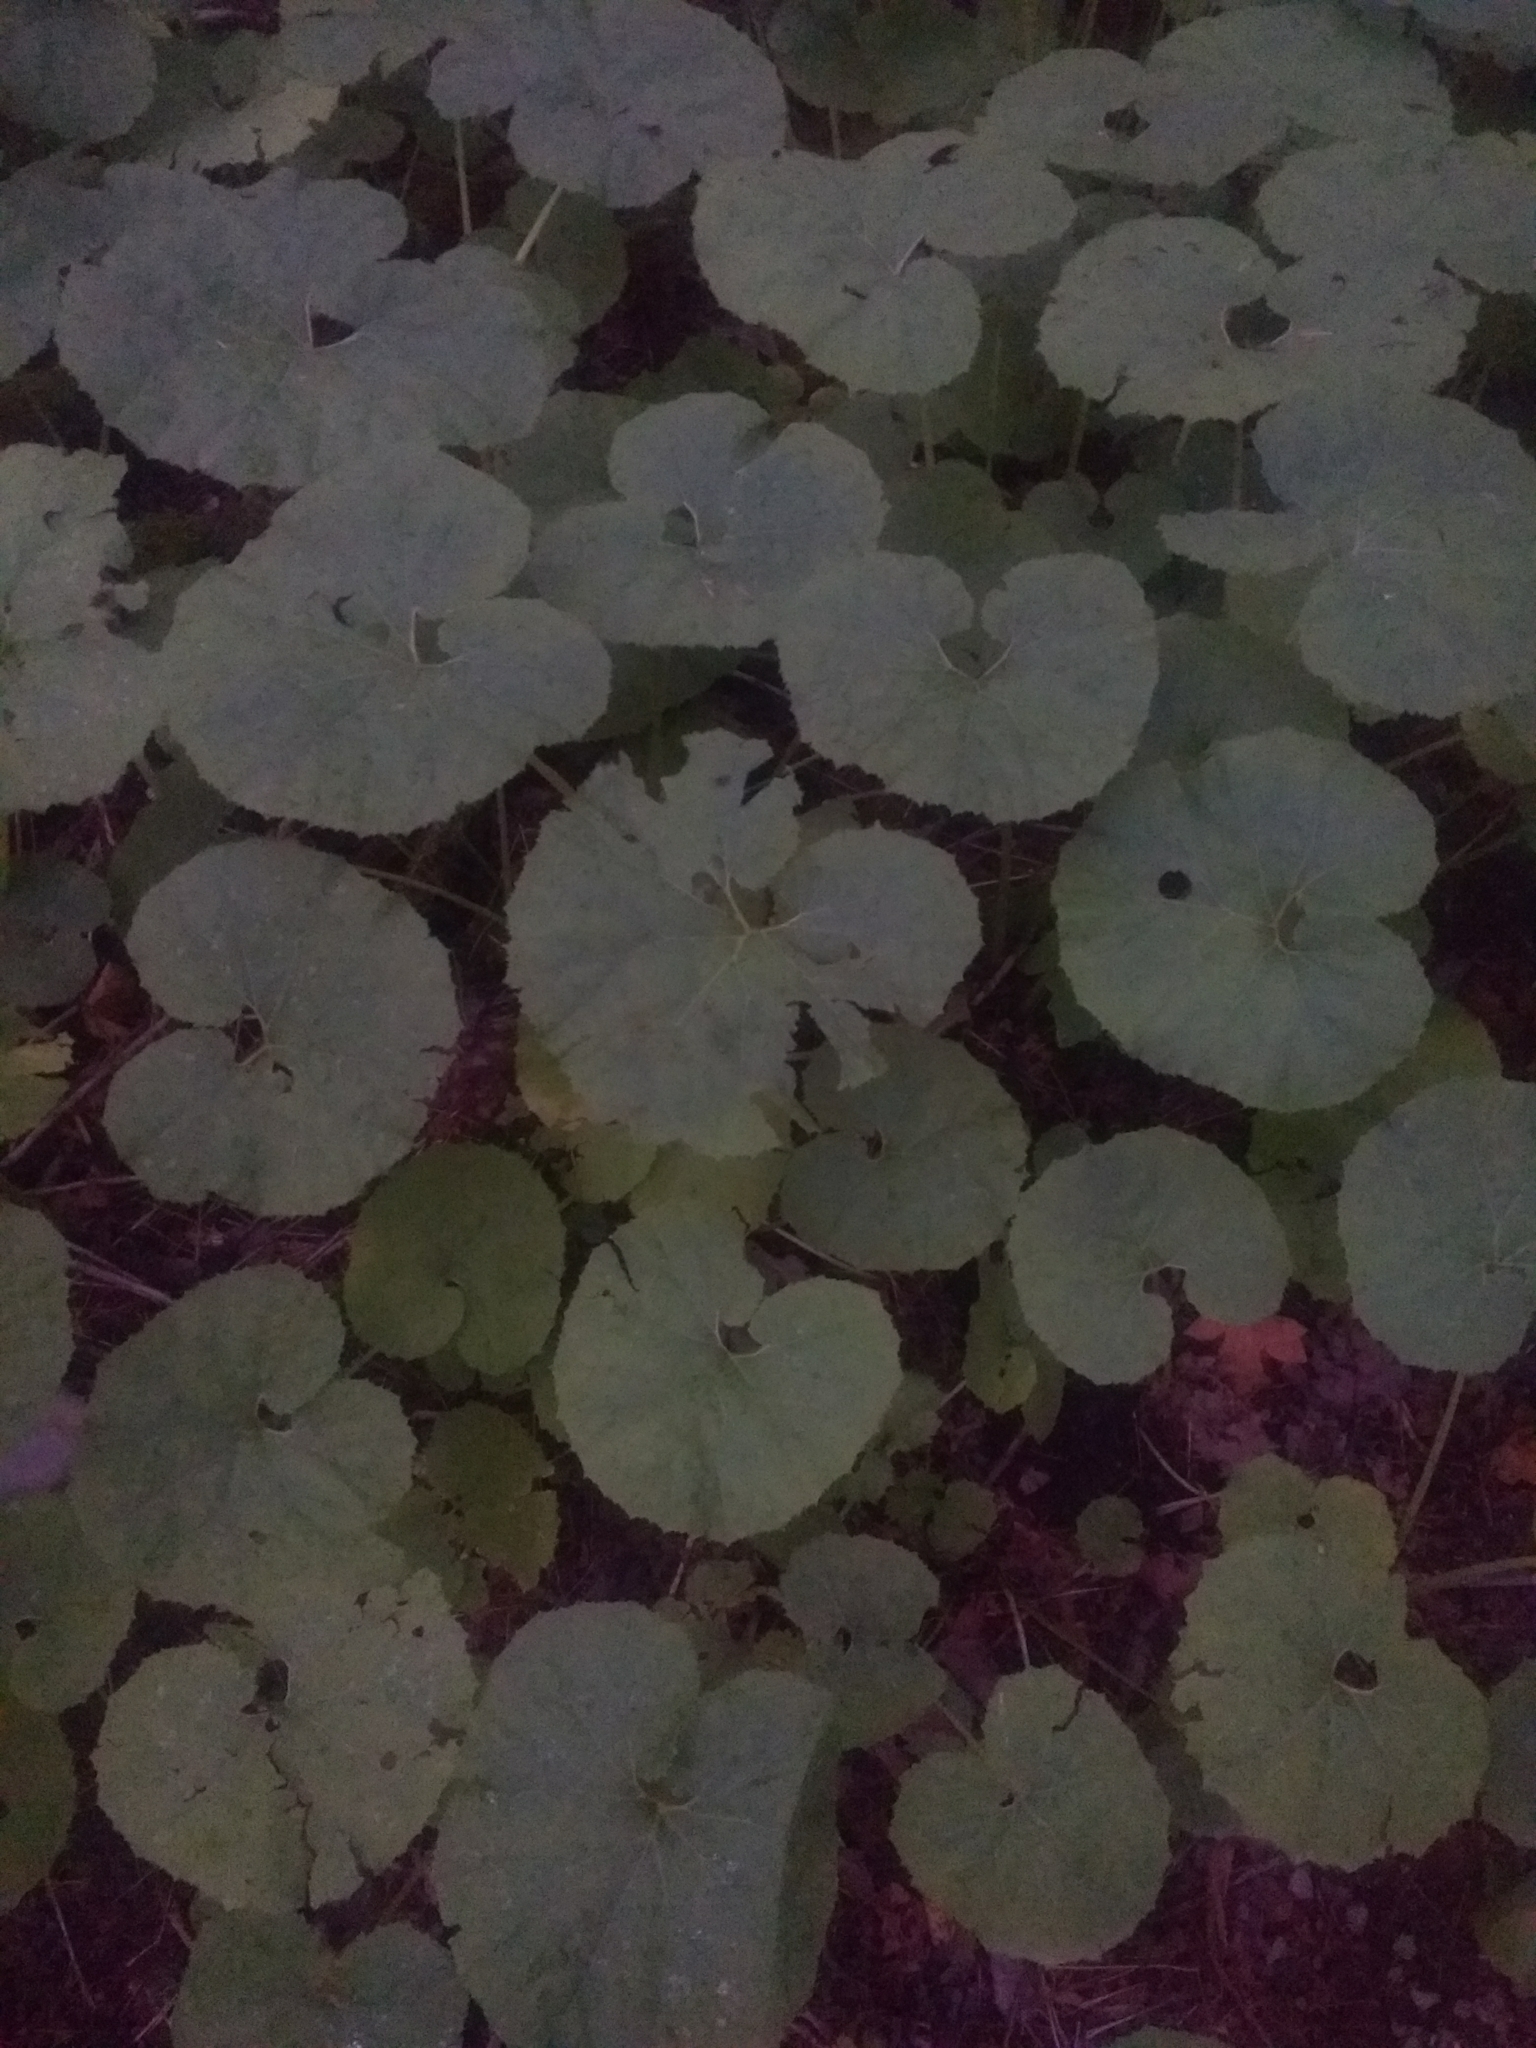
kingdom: Plantae
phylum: Tracheophyta
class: Magnoliopsida
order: Asterales
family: Asteraceae
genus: Petasites
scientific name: Petasites japonicus
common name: Giant butterbur
